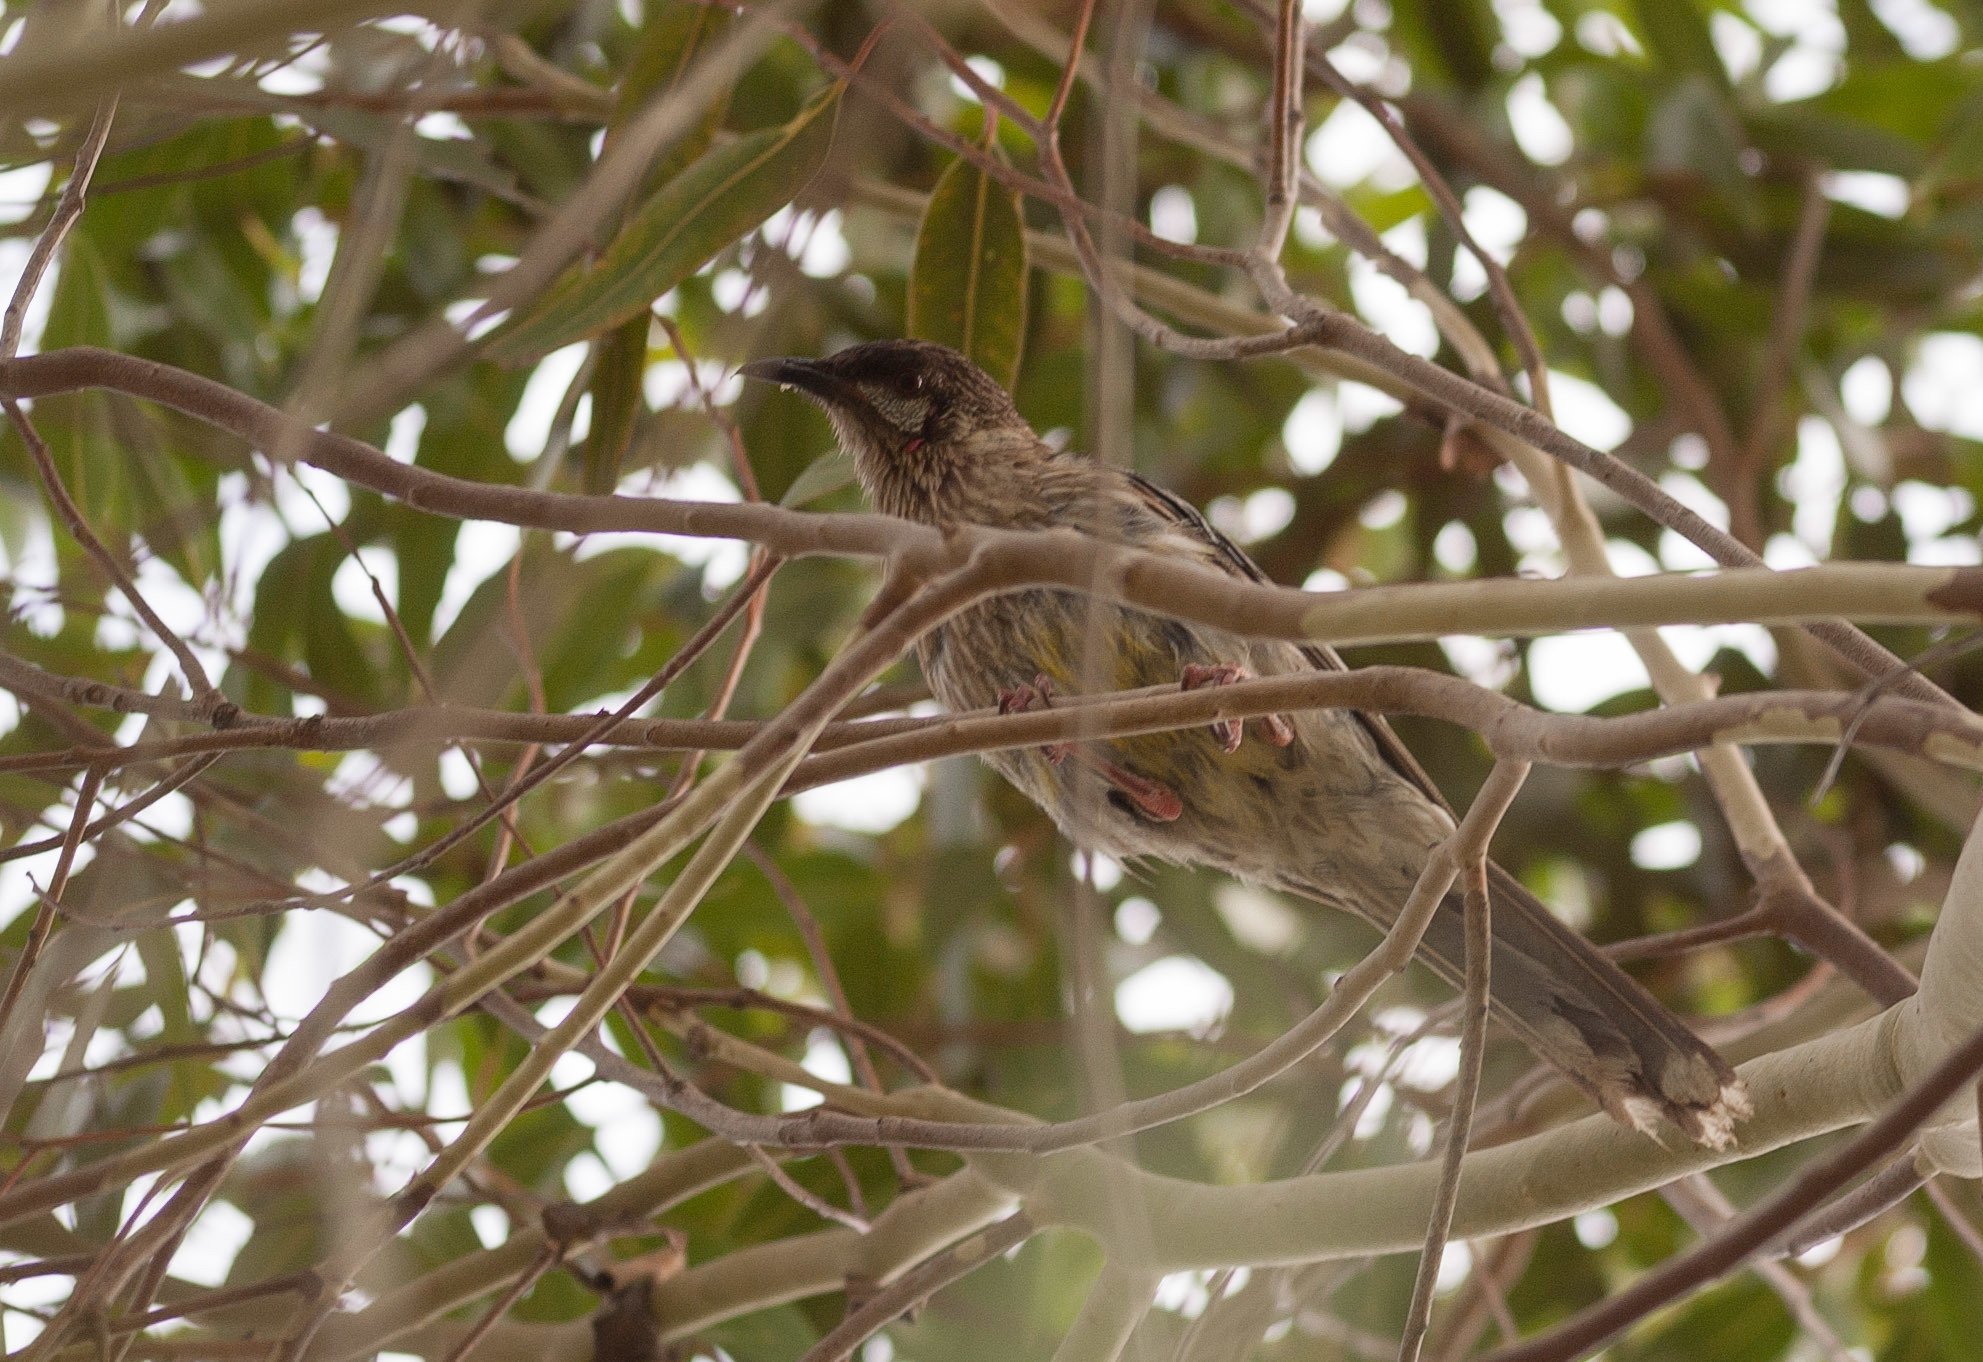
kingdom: Animalia
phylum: Chordata
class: Aves
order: Passeriformes
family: Meliphagidae
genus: Anthochaera
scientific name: Anthochaera carunculata
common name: Red wattlebird
